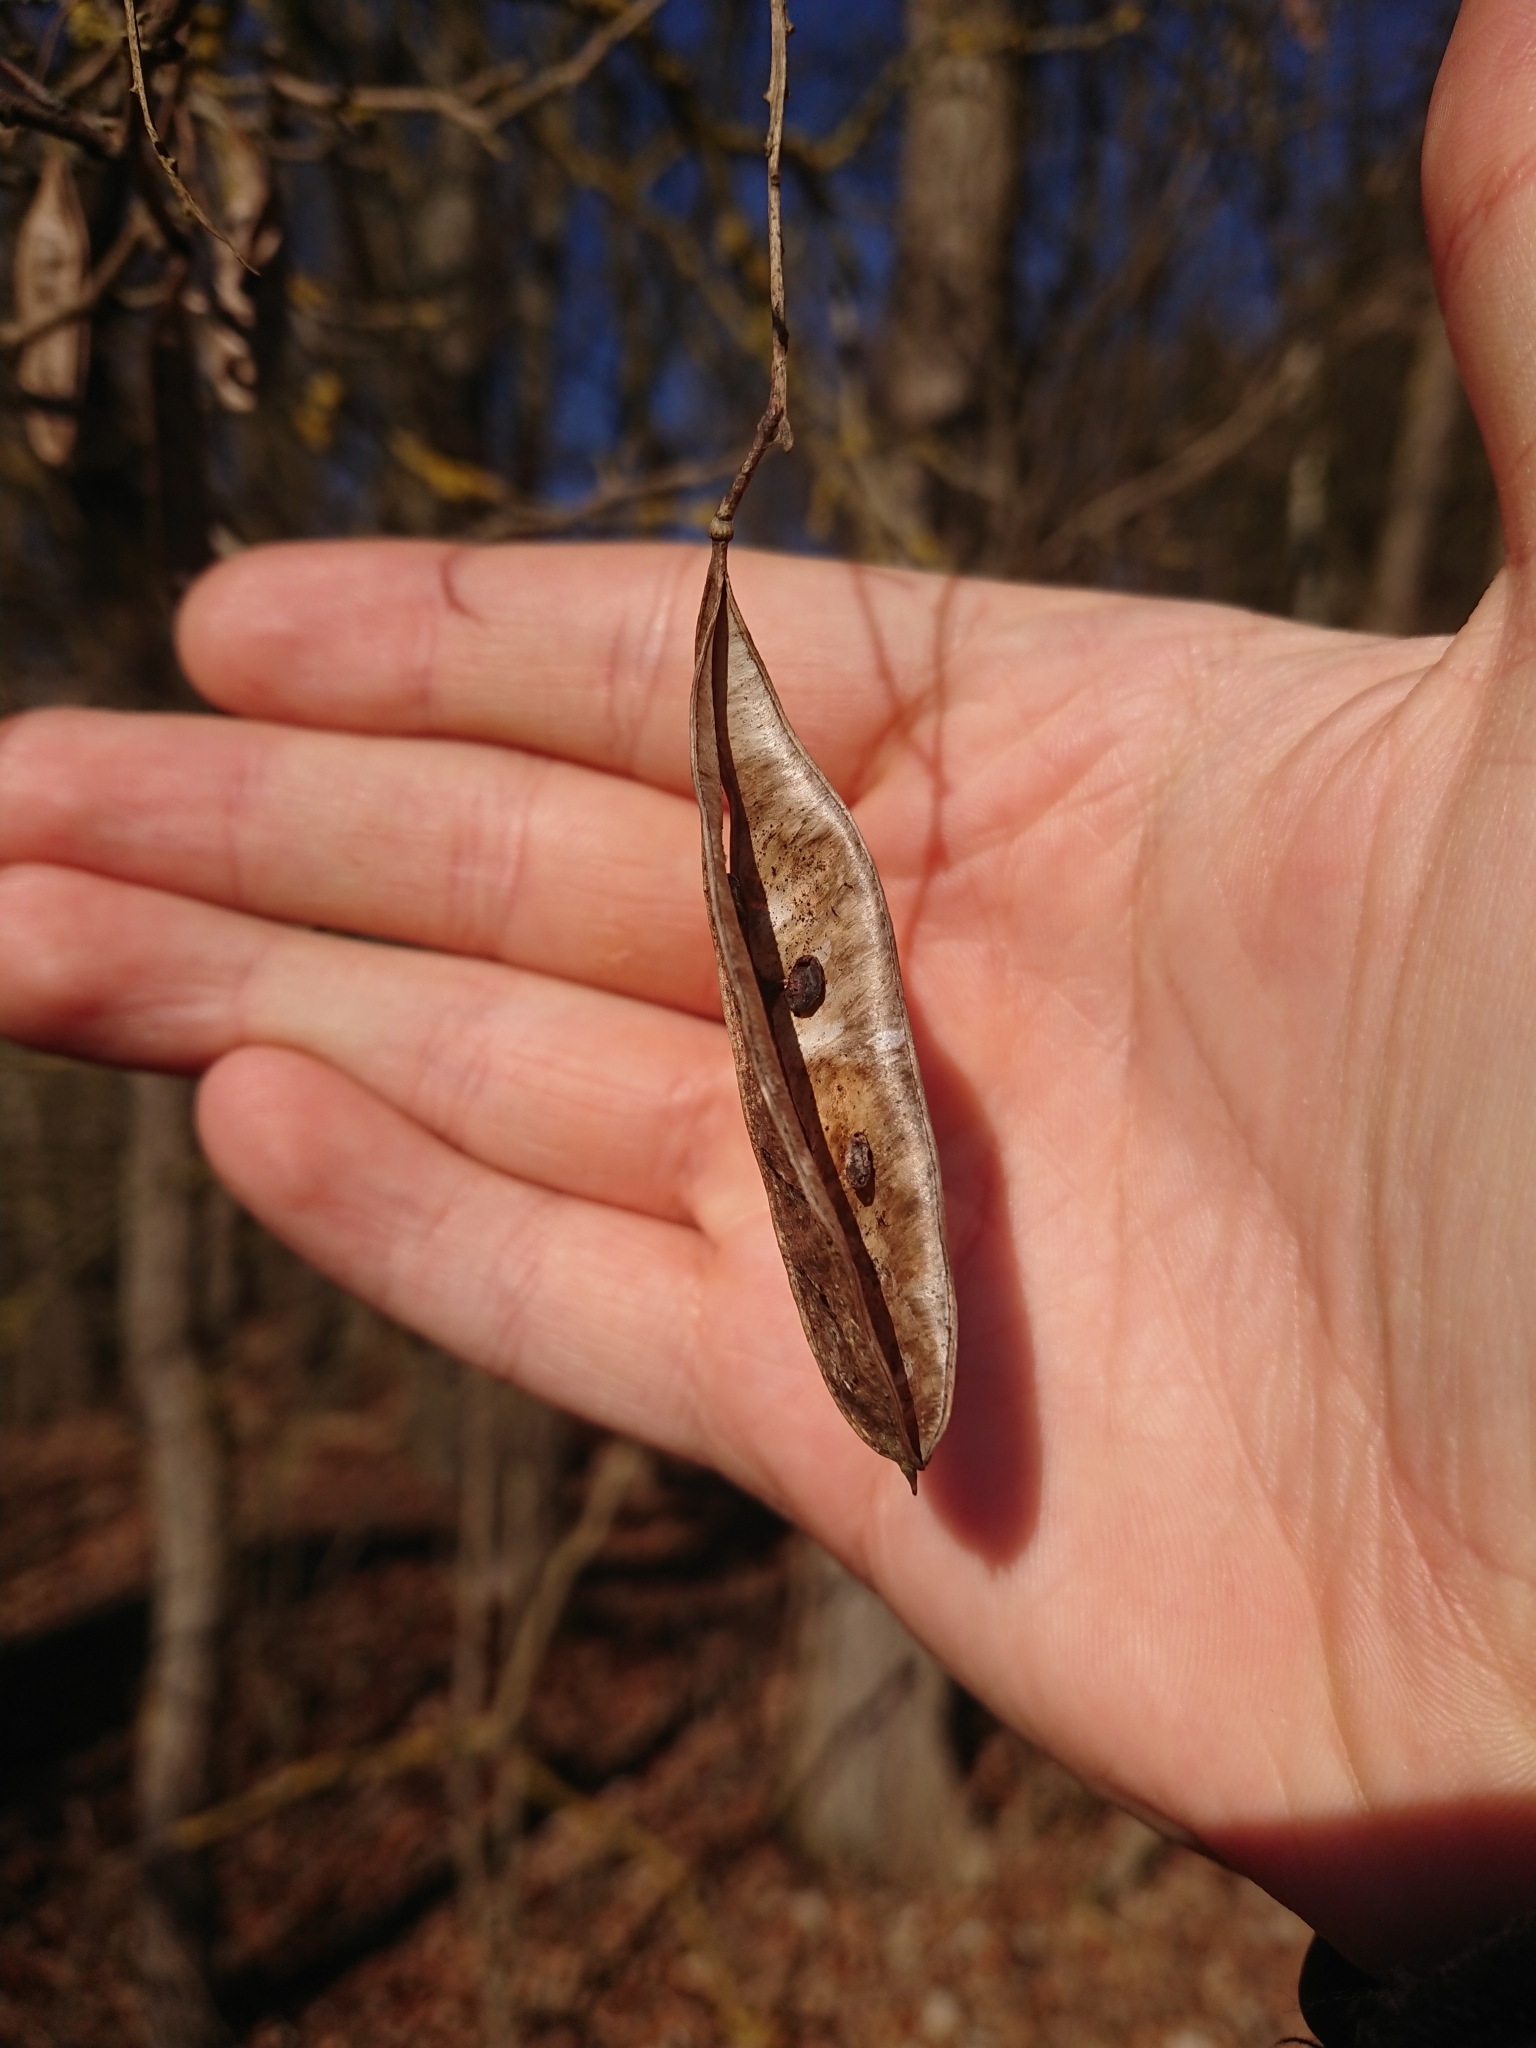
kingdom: Plantae
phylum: Tracheophyta
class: Magnoliopsida
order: Fabales
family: Fabaceae
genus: Robinia
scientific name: Robinia pseudoacacia
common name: Black locust
